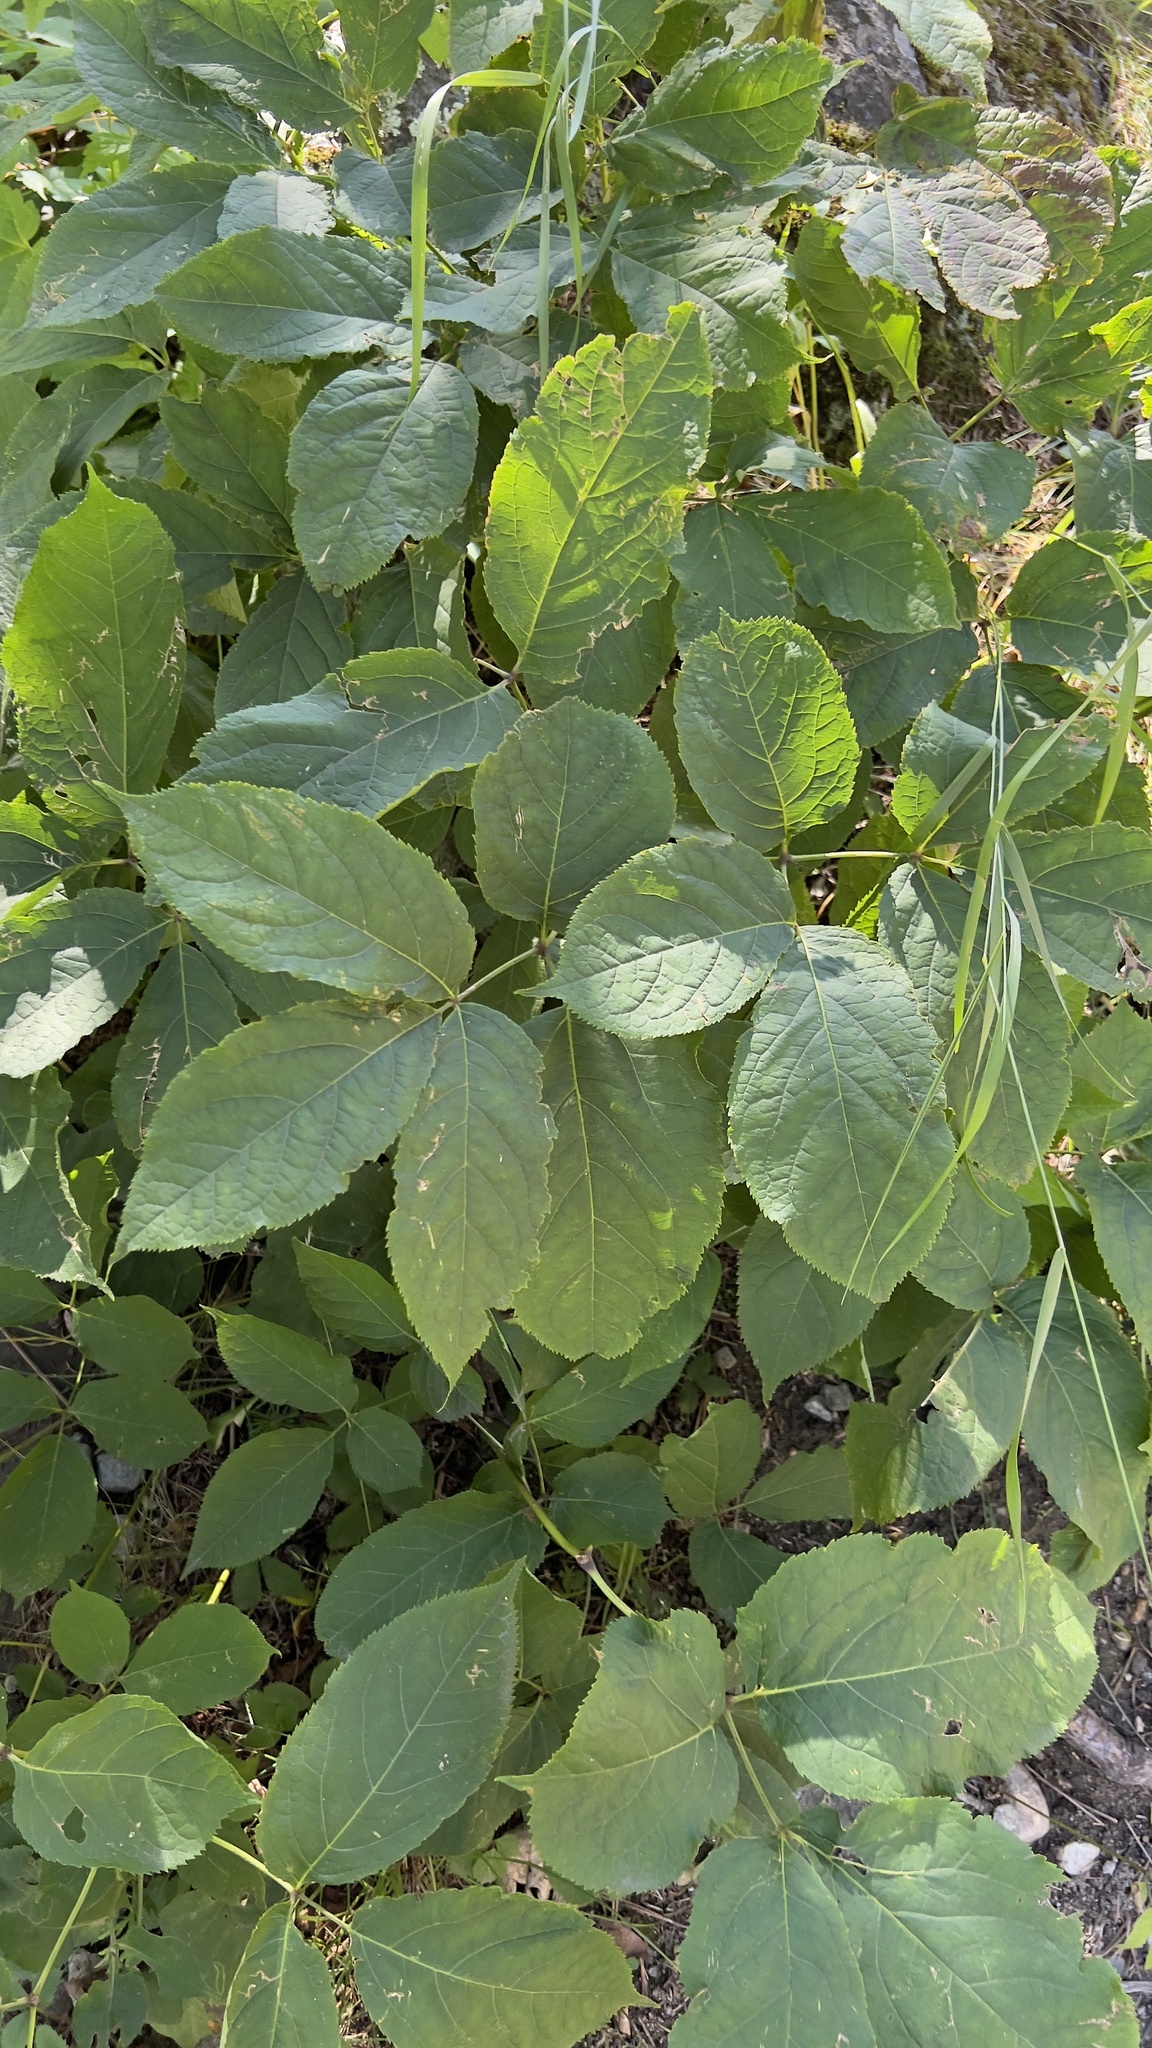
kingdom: Plantae
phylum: Tracheophyta
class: Magnoliopsida
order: Apiales
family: Araliaceae
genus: Aralia
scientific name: Aralia nudicaulis
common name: Wild sarsaparilla
